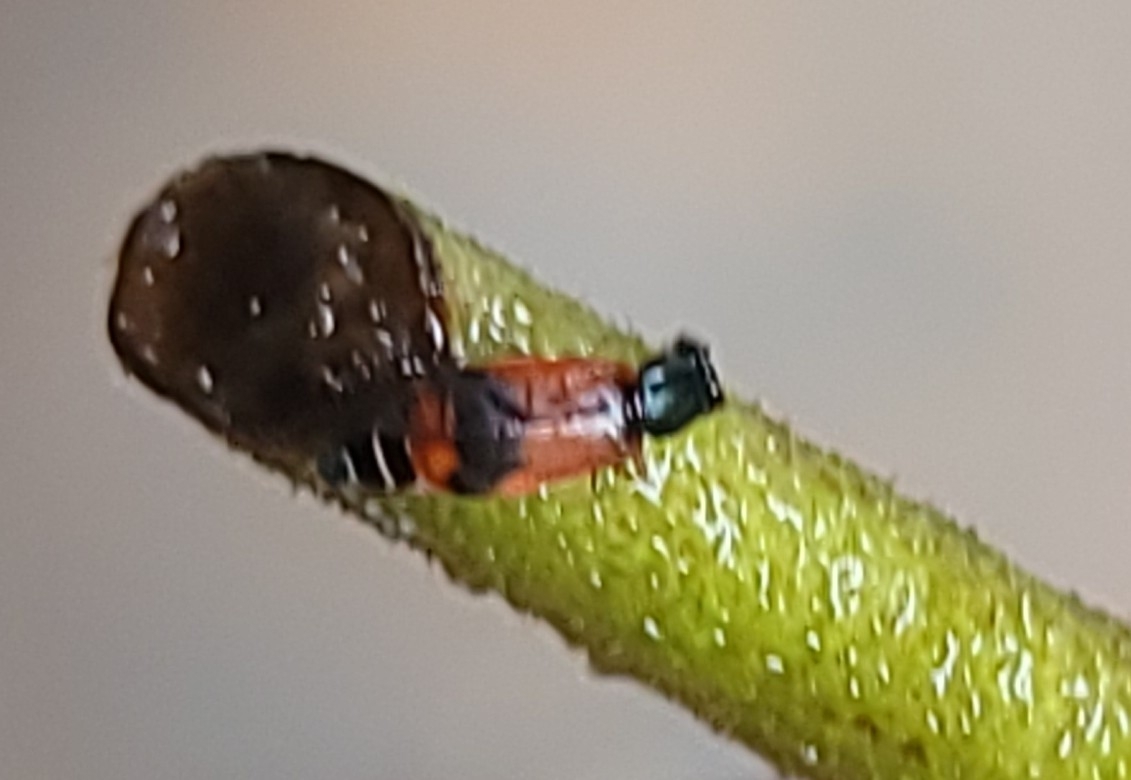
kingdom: Animalia
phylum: Arthropoda
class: Insecta
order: Coleoptera
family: Melyridae
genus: Anthocomus
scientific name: Anthocomus equestris
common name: Black-banded soft-winged flower beetle
